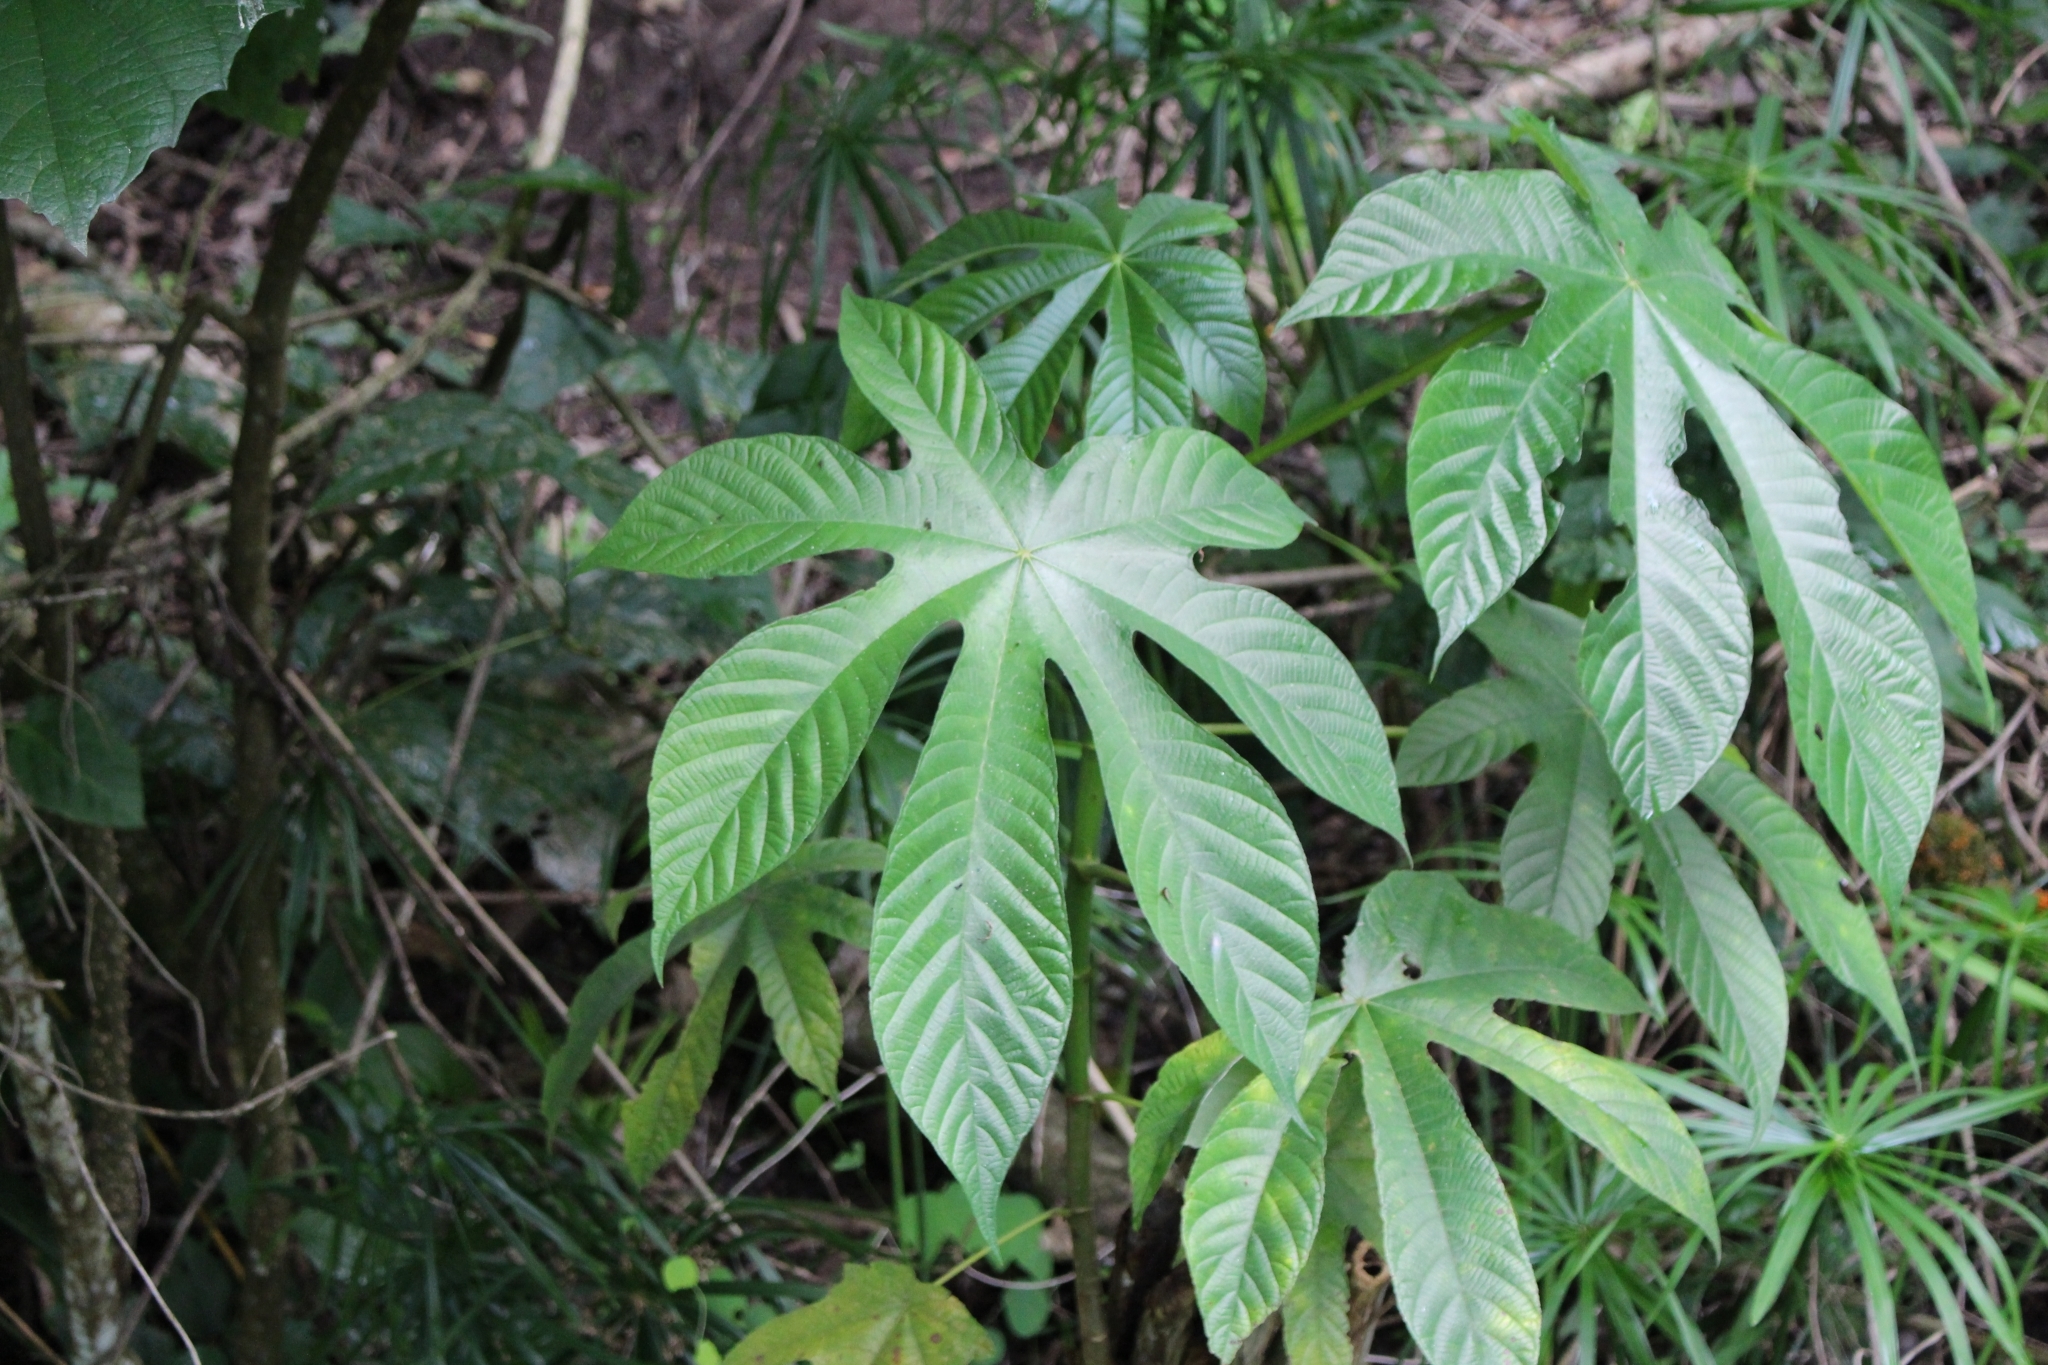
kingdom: Plantae
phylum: Tracheophyta
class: Magnoliopsida
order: Rosales
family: Urticaceae
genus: Cecropia
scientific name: Cecropia obtusifolia
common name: Trumpet tree
